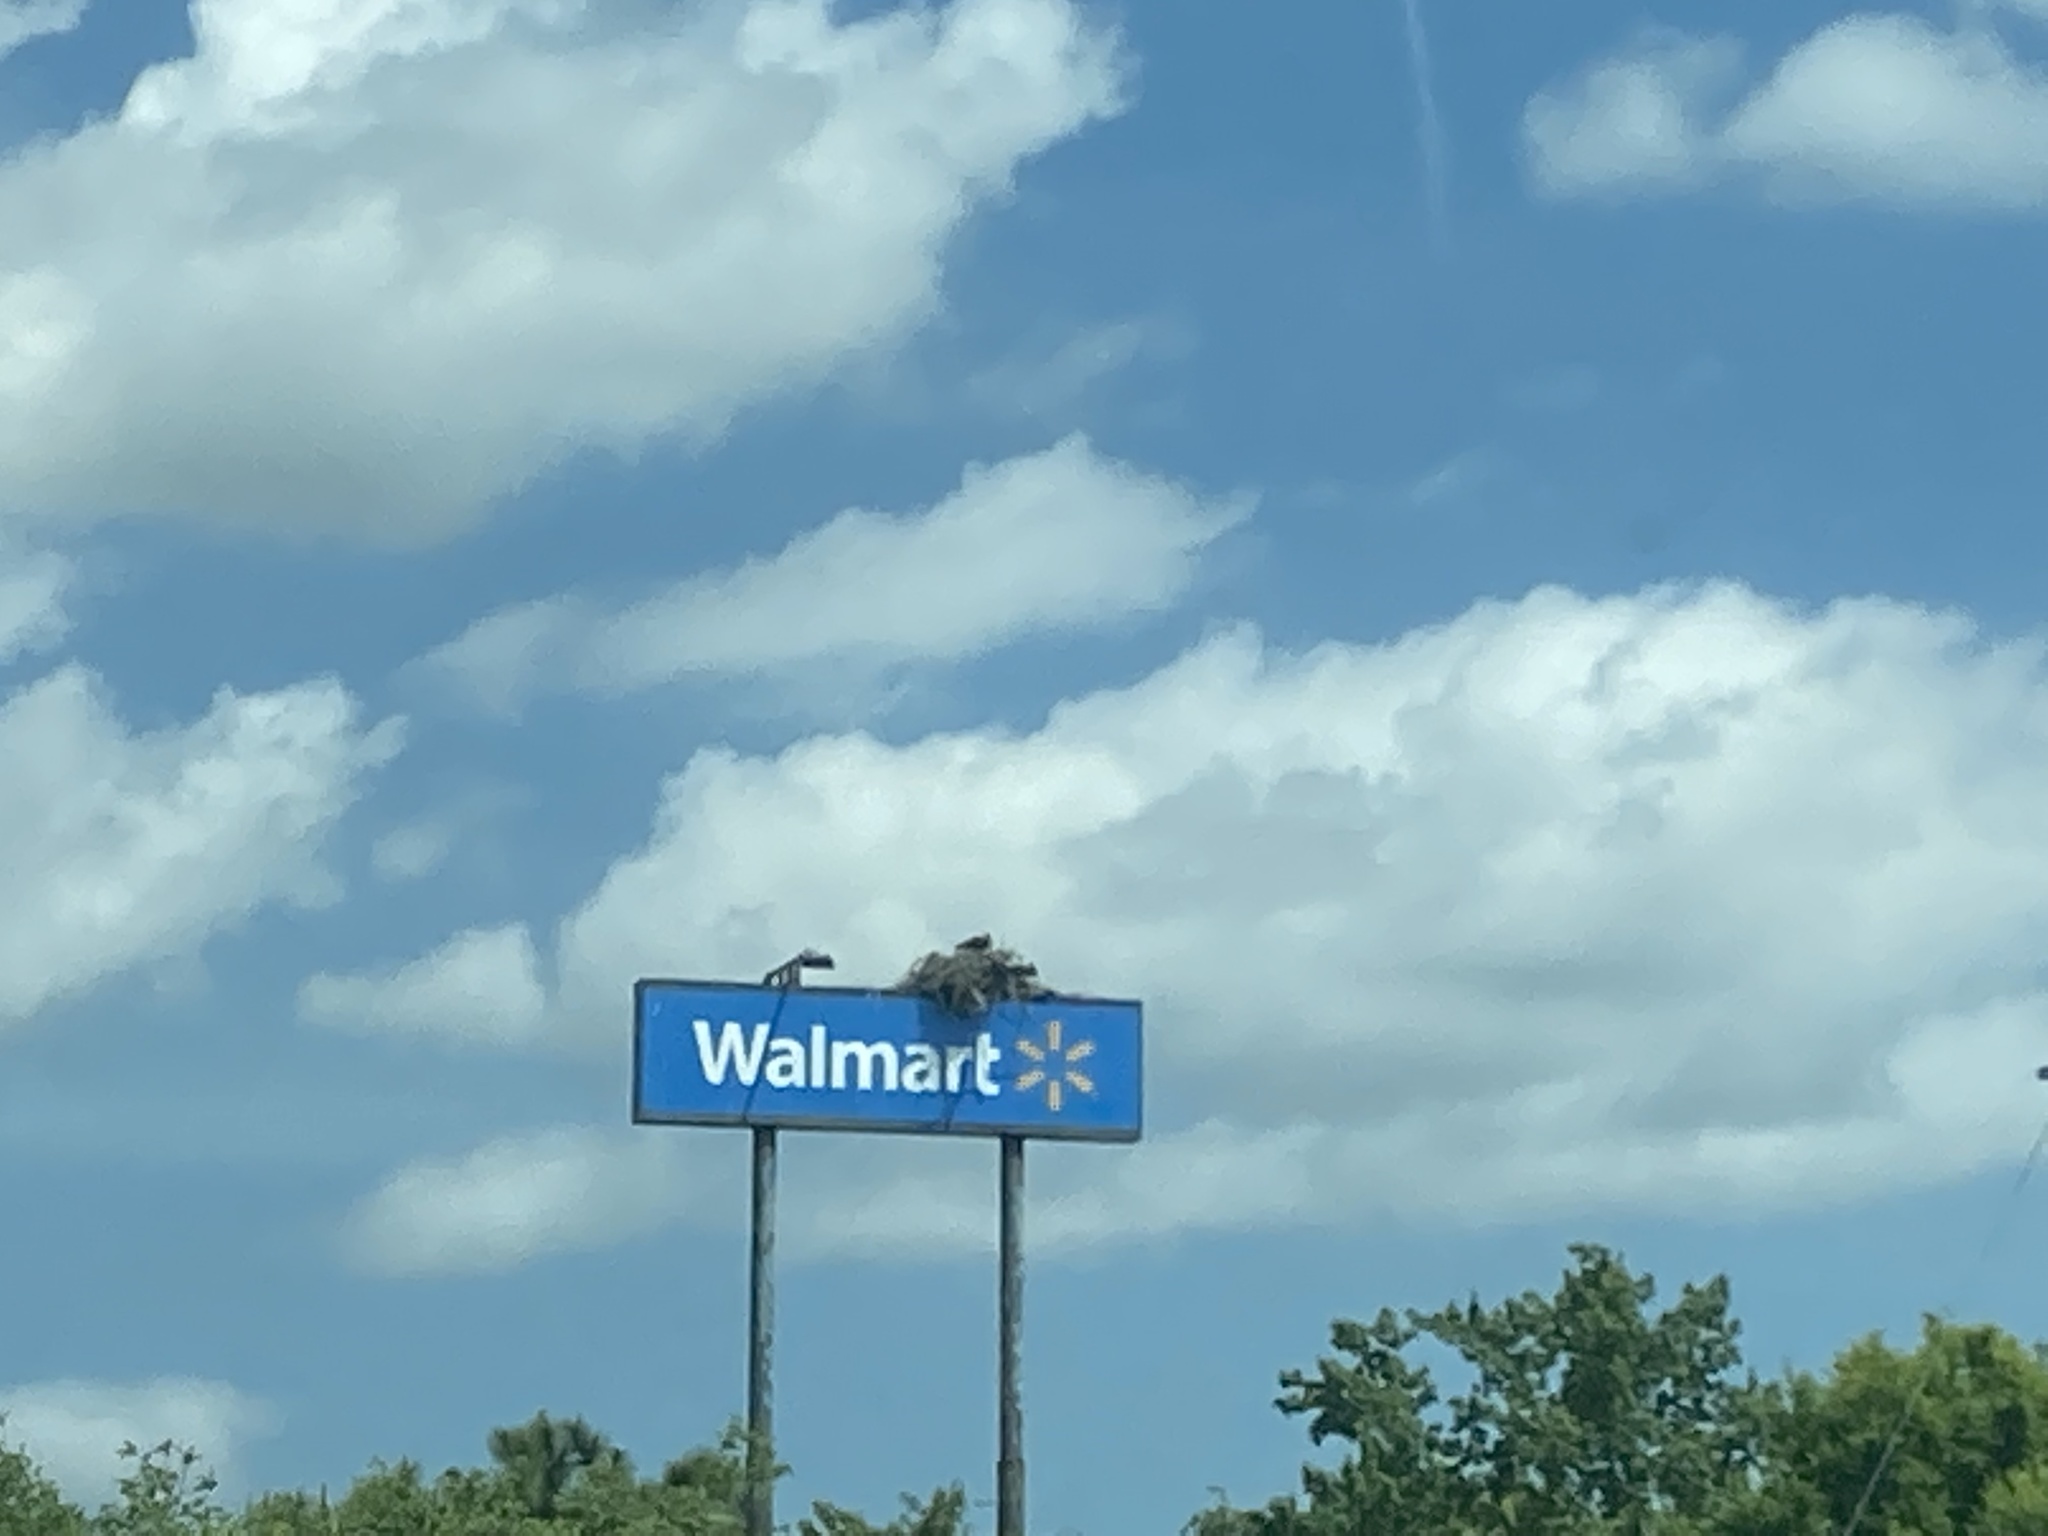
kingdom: Animalia
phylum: Chordata
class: Aves
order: Accipitriformes
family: Pandionidae
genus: Pandion
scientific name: Pandion haliaetus
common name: Osprey
